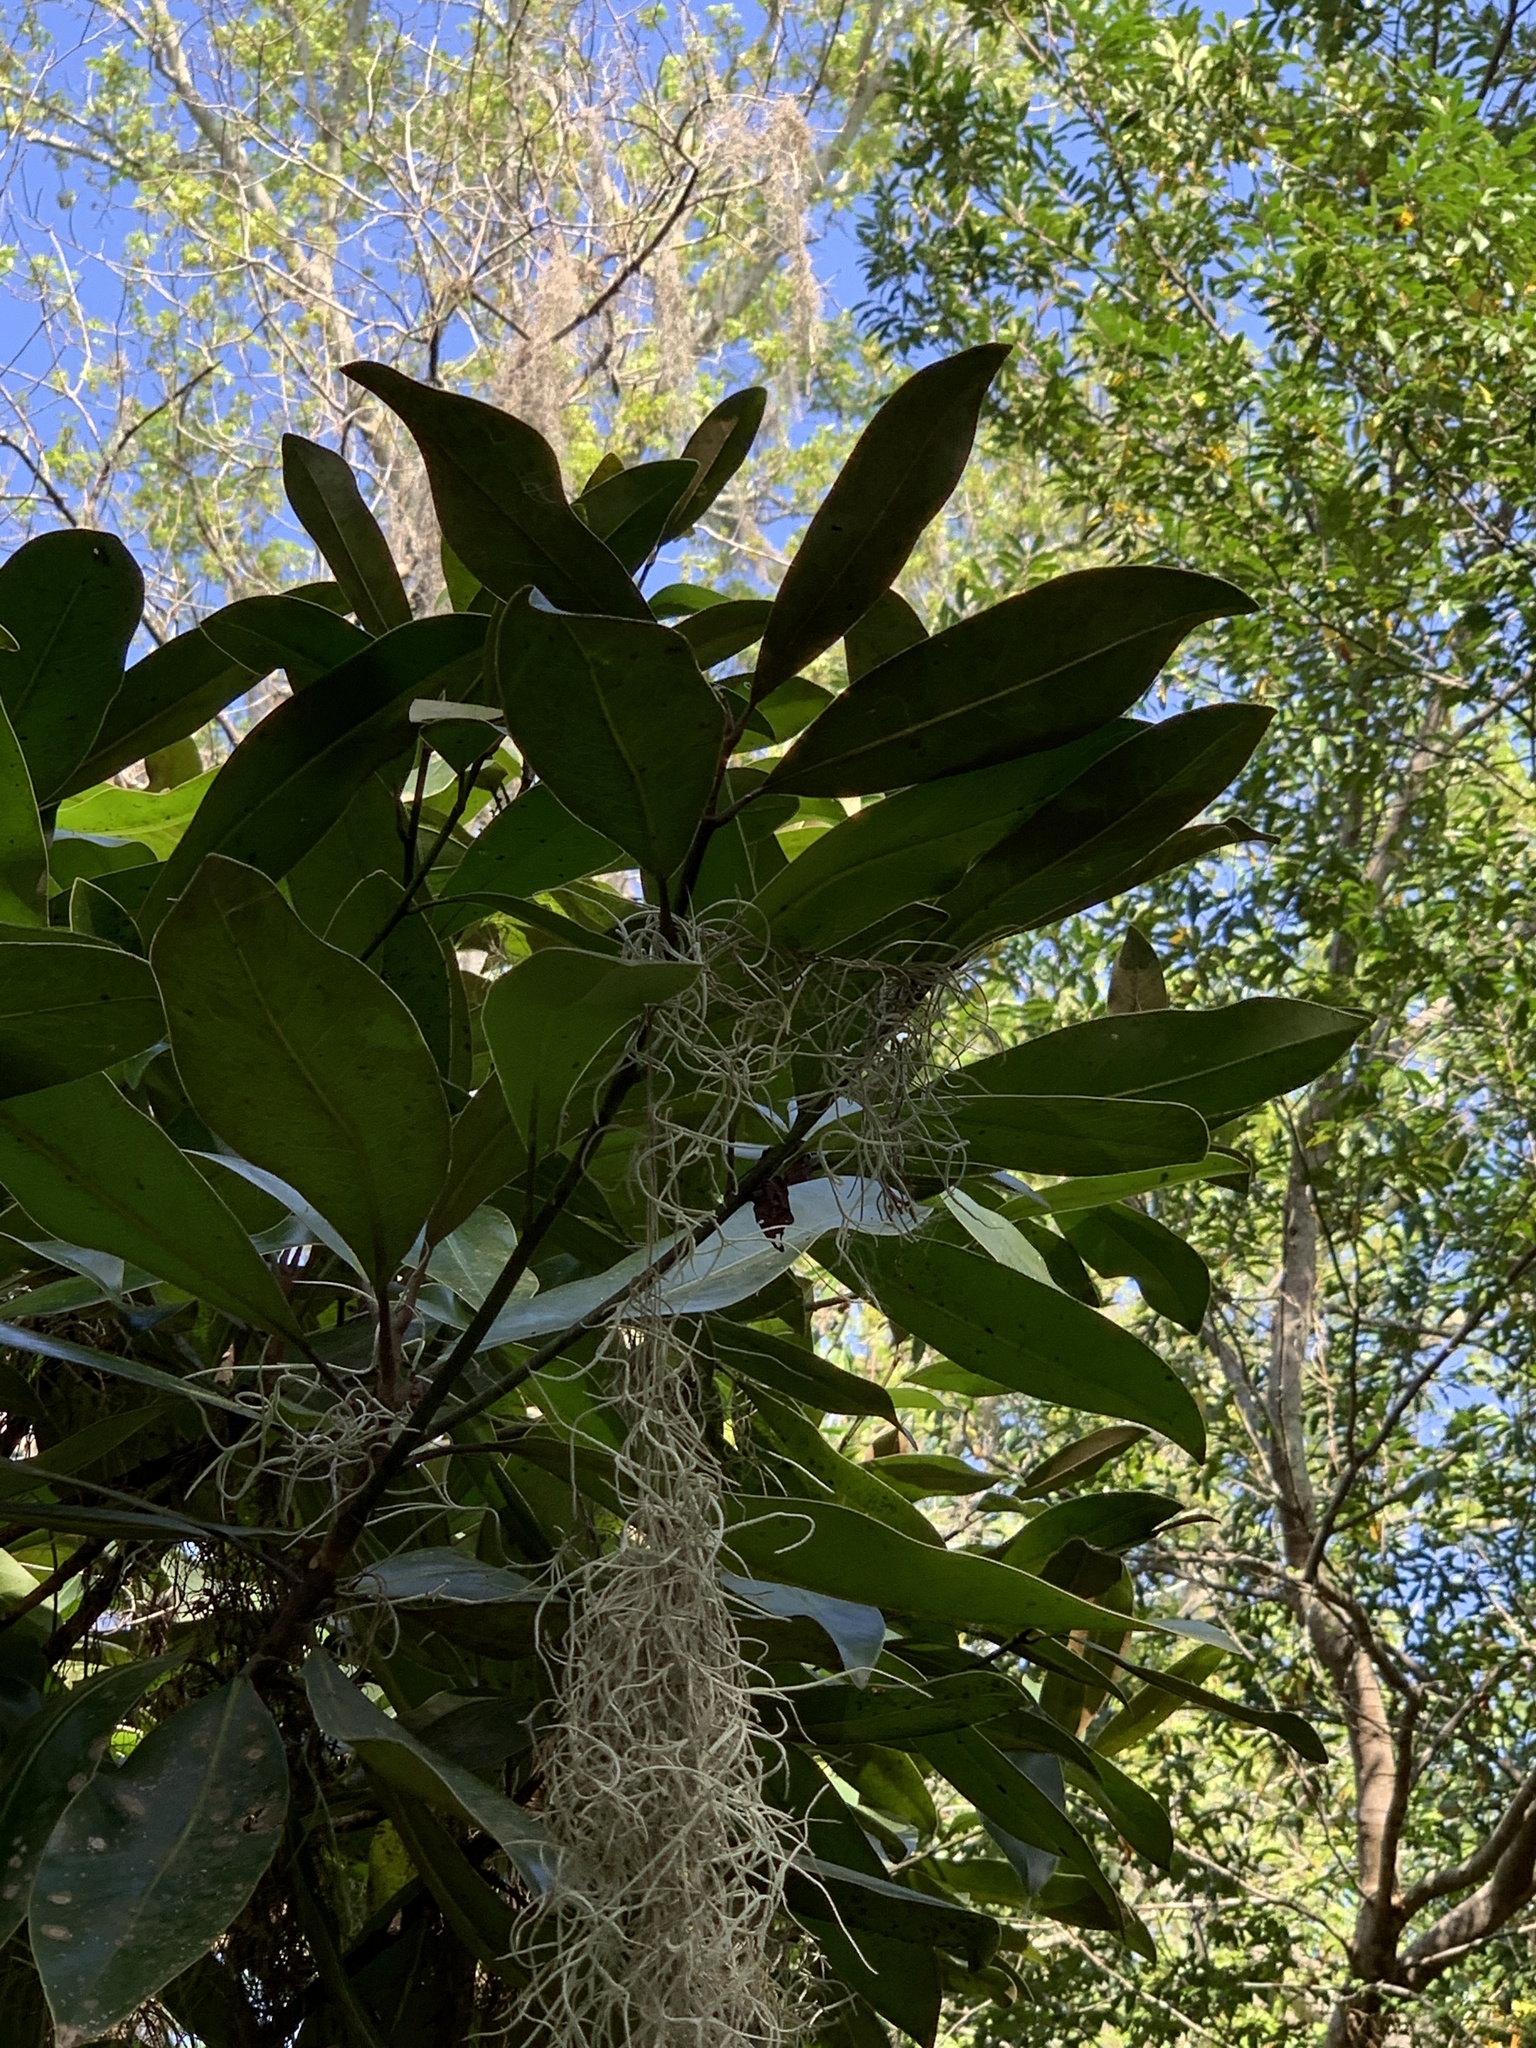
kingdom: Plantae
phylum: Tracheophyta
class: Magnoliopsida
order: Magnoliales
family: Magnoliaceae
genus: Magnolia
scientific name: Magnolia grandiflora
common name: Southern magnolia
